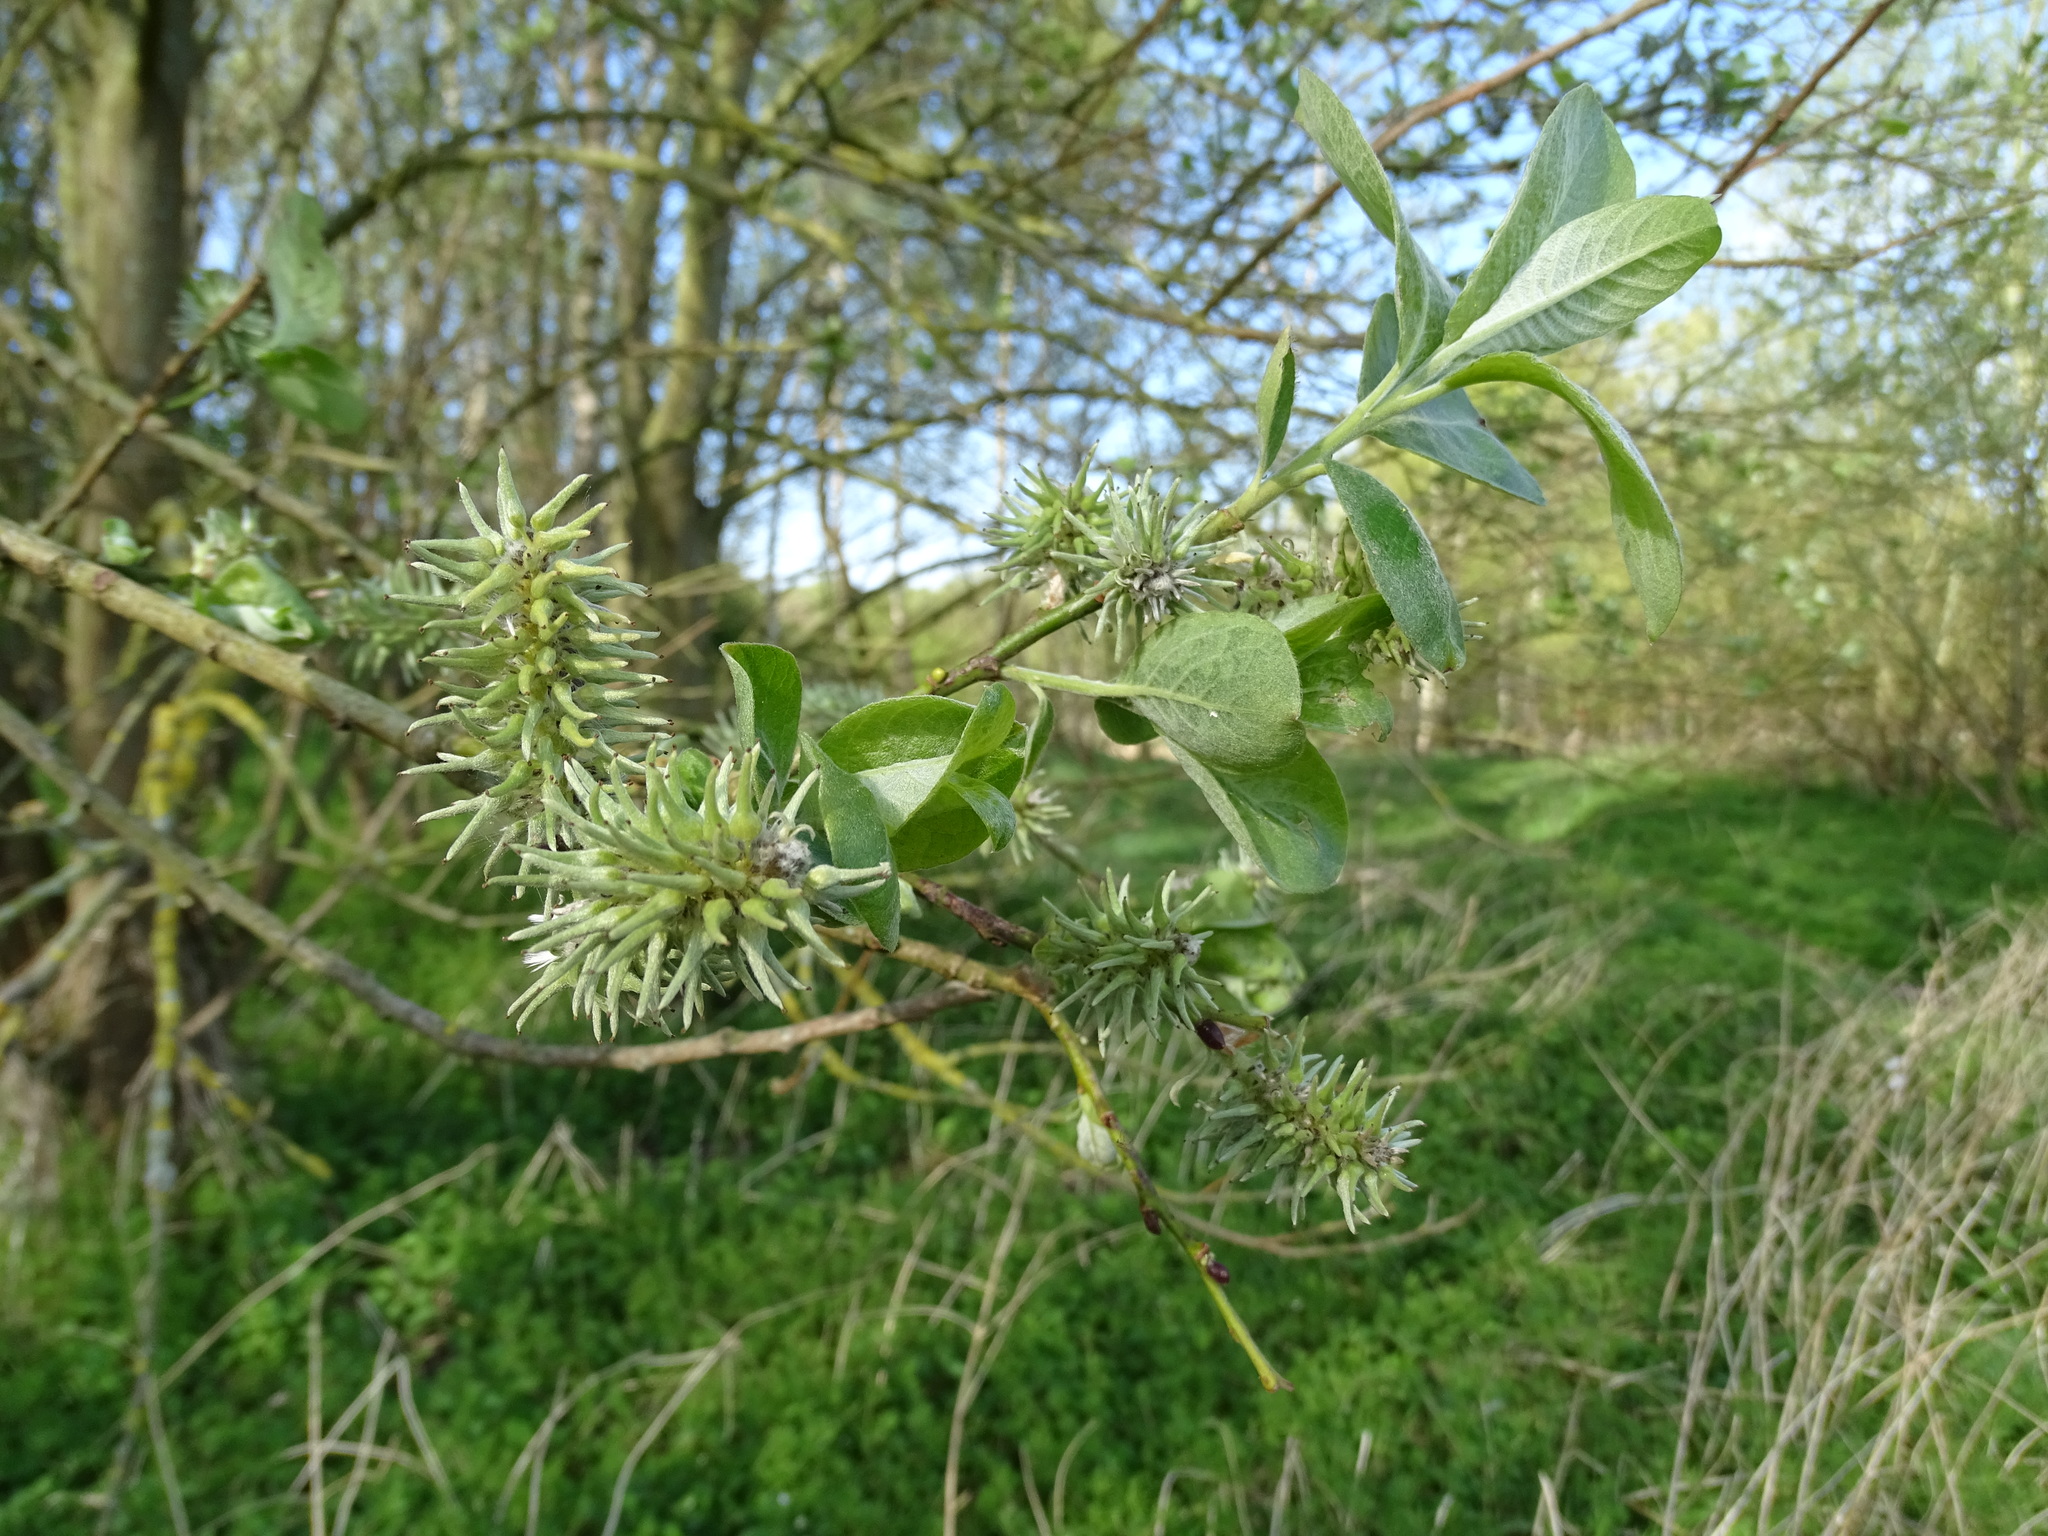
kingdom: Plantae
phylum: Tracheophyta
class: Magnoliopsida
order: Malpighiales
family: Salicaceae
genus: Salix
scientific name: Salix caprea
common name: Goat willow
